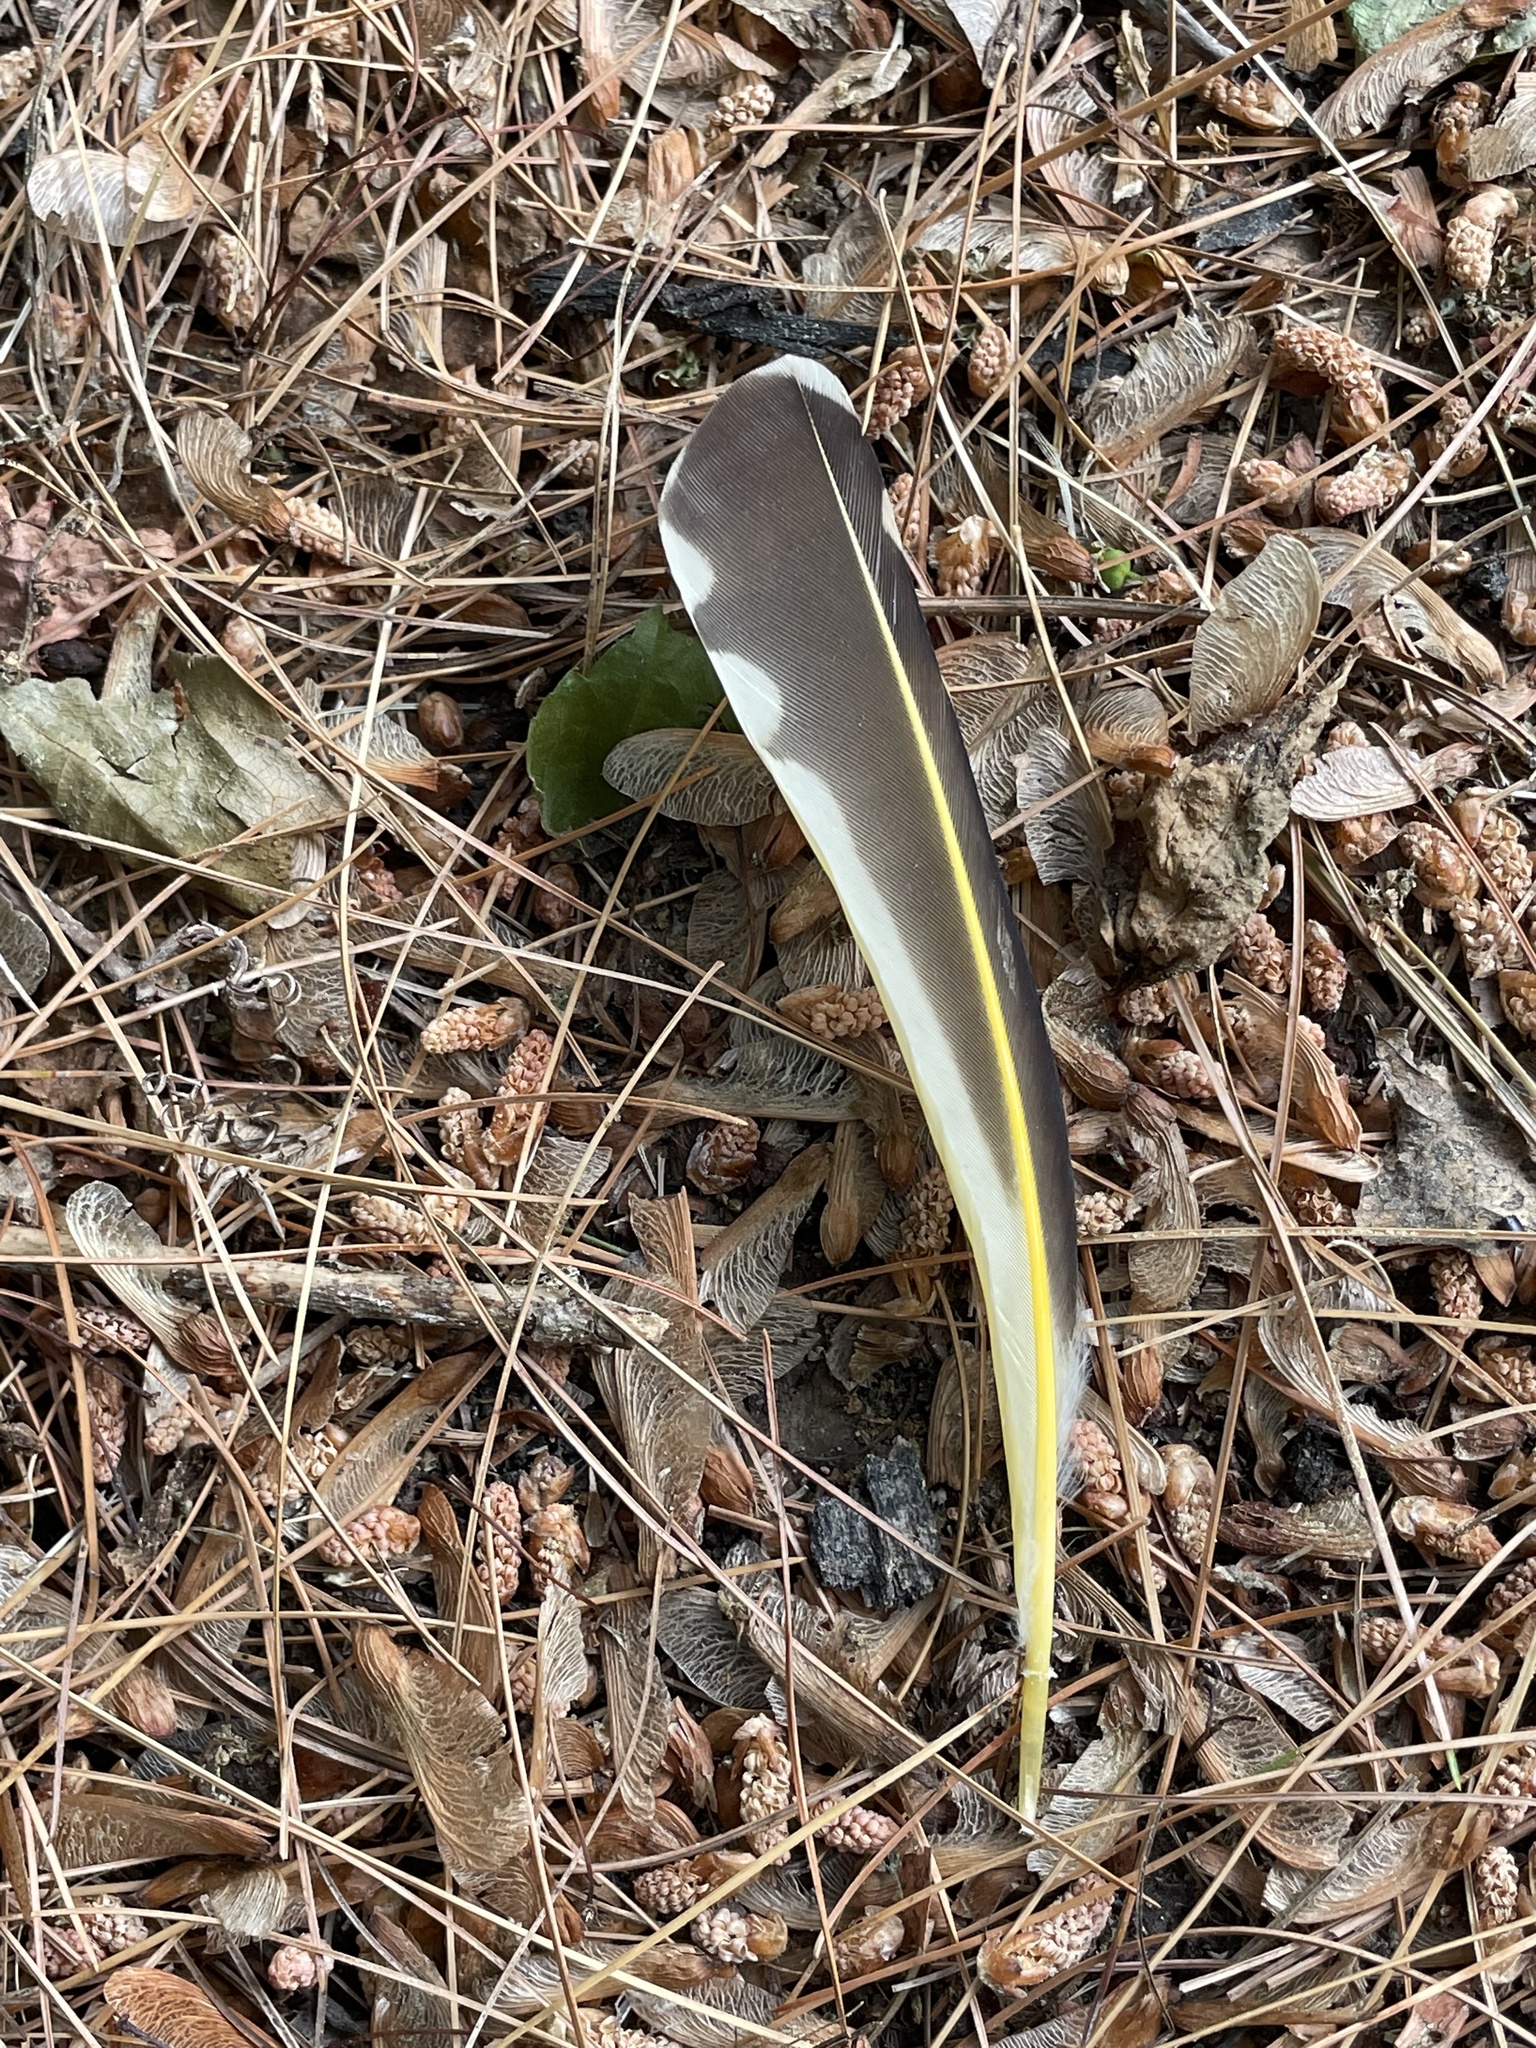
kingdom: Animalia
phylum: Chordata
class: Aves
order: Piciformes
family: Picidae
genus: Colaptes
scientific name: Colaptes auratus
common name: Northern flicker
